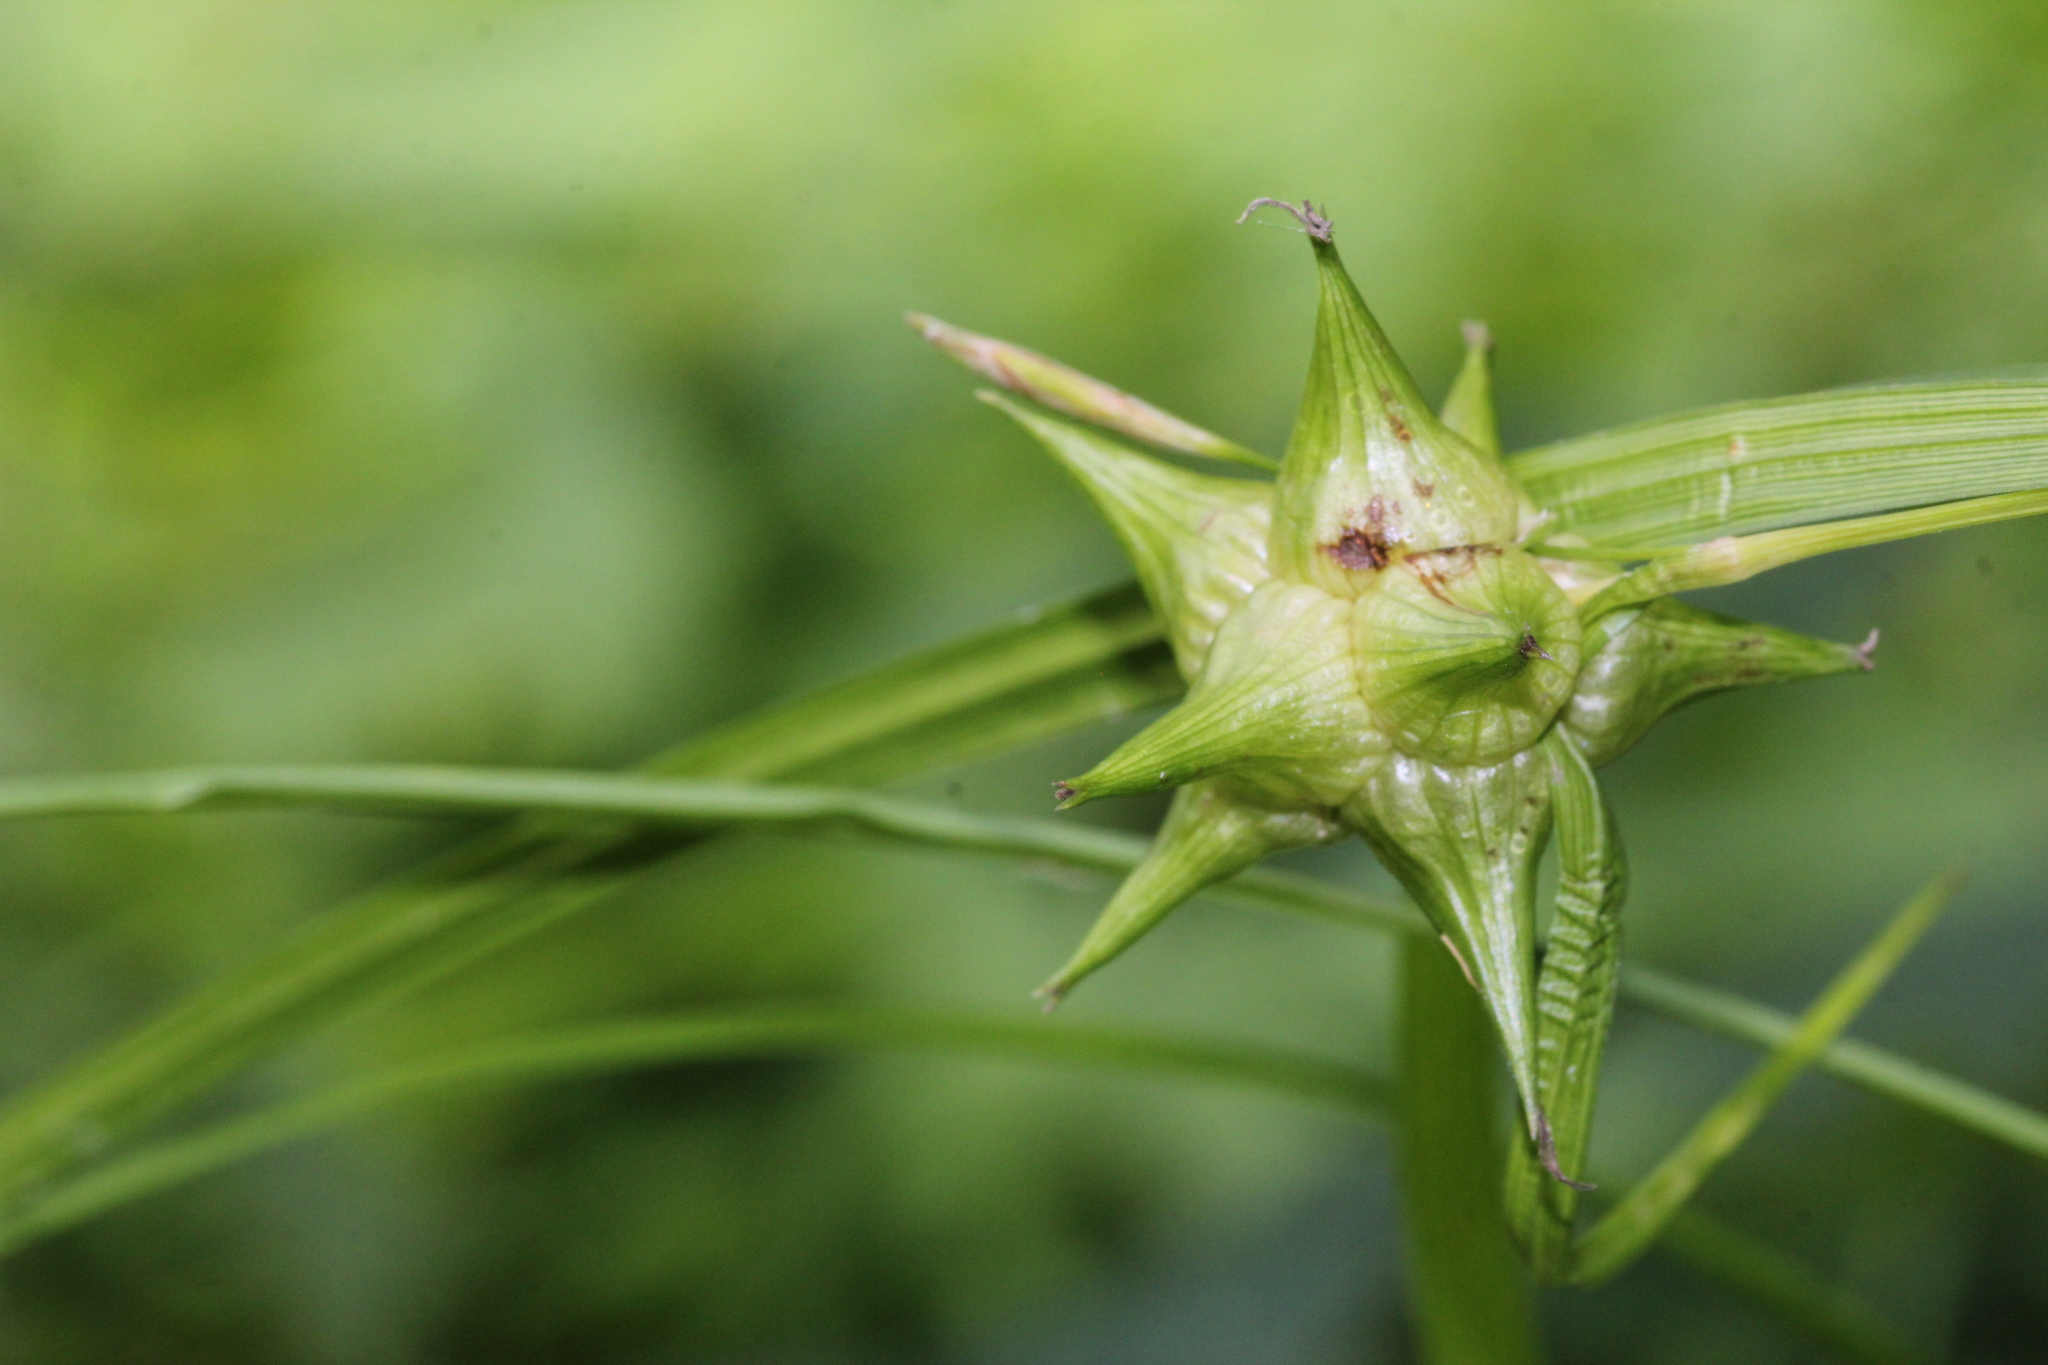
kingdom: Plantae
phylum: Tracheophyta
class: Liliopsida
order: Poales
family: Cyperaceae
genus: Carex
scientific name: Carex grayi
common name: Asa gray's sedge
